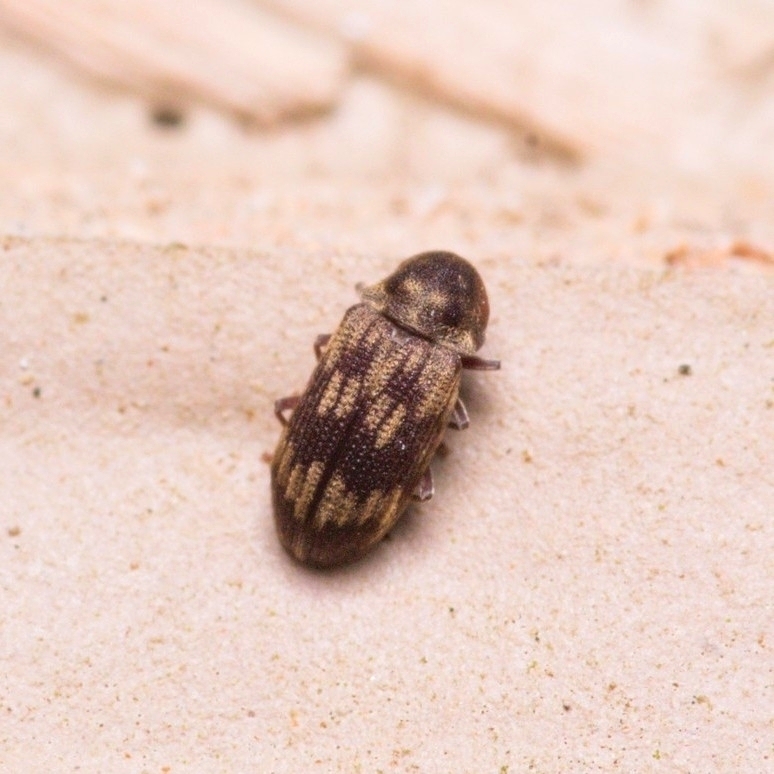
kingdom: Animalia
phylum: Arthropoda
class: Insecta
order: Coleoptera
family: Anobiidae
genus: Hadrobregmus
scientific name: Hadrobregmus notatus
